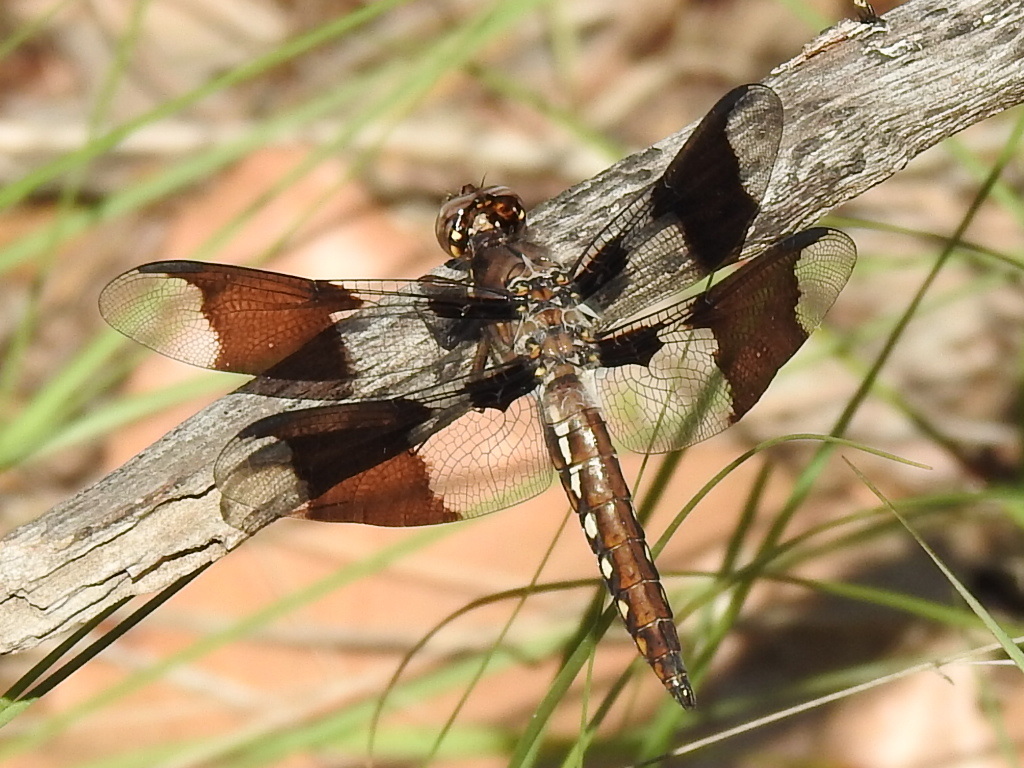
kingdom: Animalia
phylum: Arthropoda
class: Insecta
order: Odonata
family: Libellulidae
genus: Plathemis
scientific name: Plathemis lydia
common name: Common whitetail
